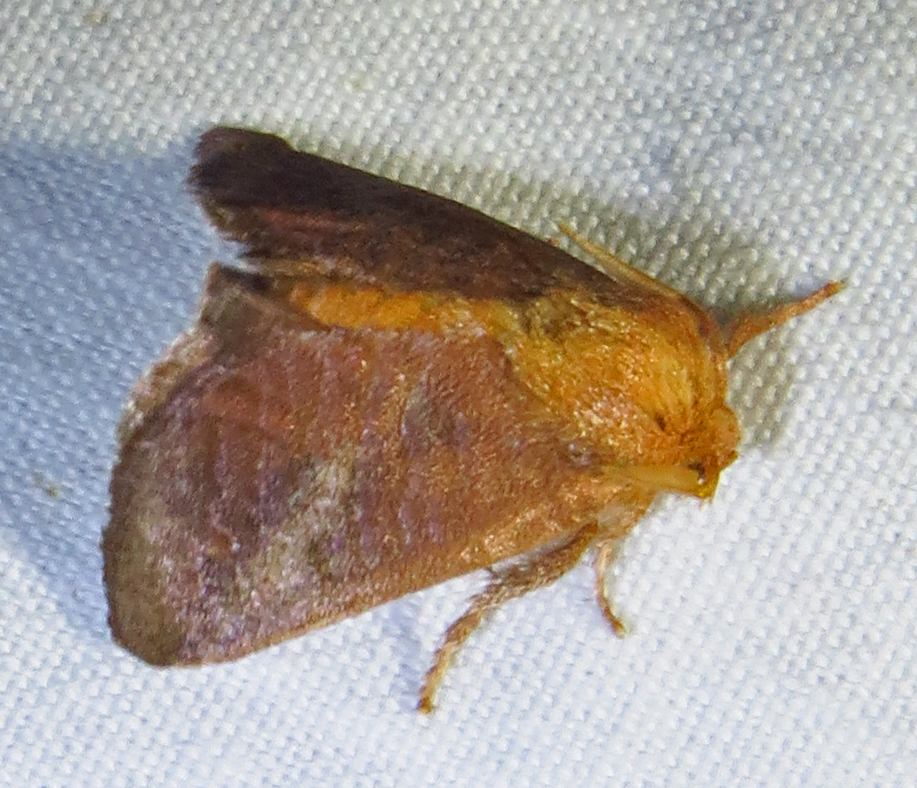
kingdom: Animalia
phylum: Arthropoda
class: Insecta
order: Lepidoptera
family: Limacodidae
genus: Isa
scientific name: Isa textula
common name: Crowned slug moth
